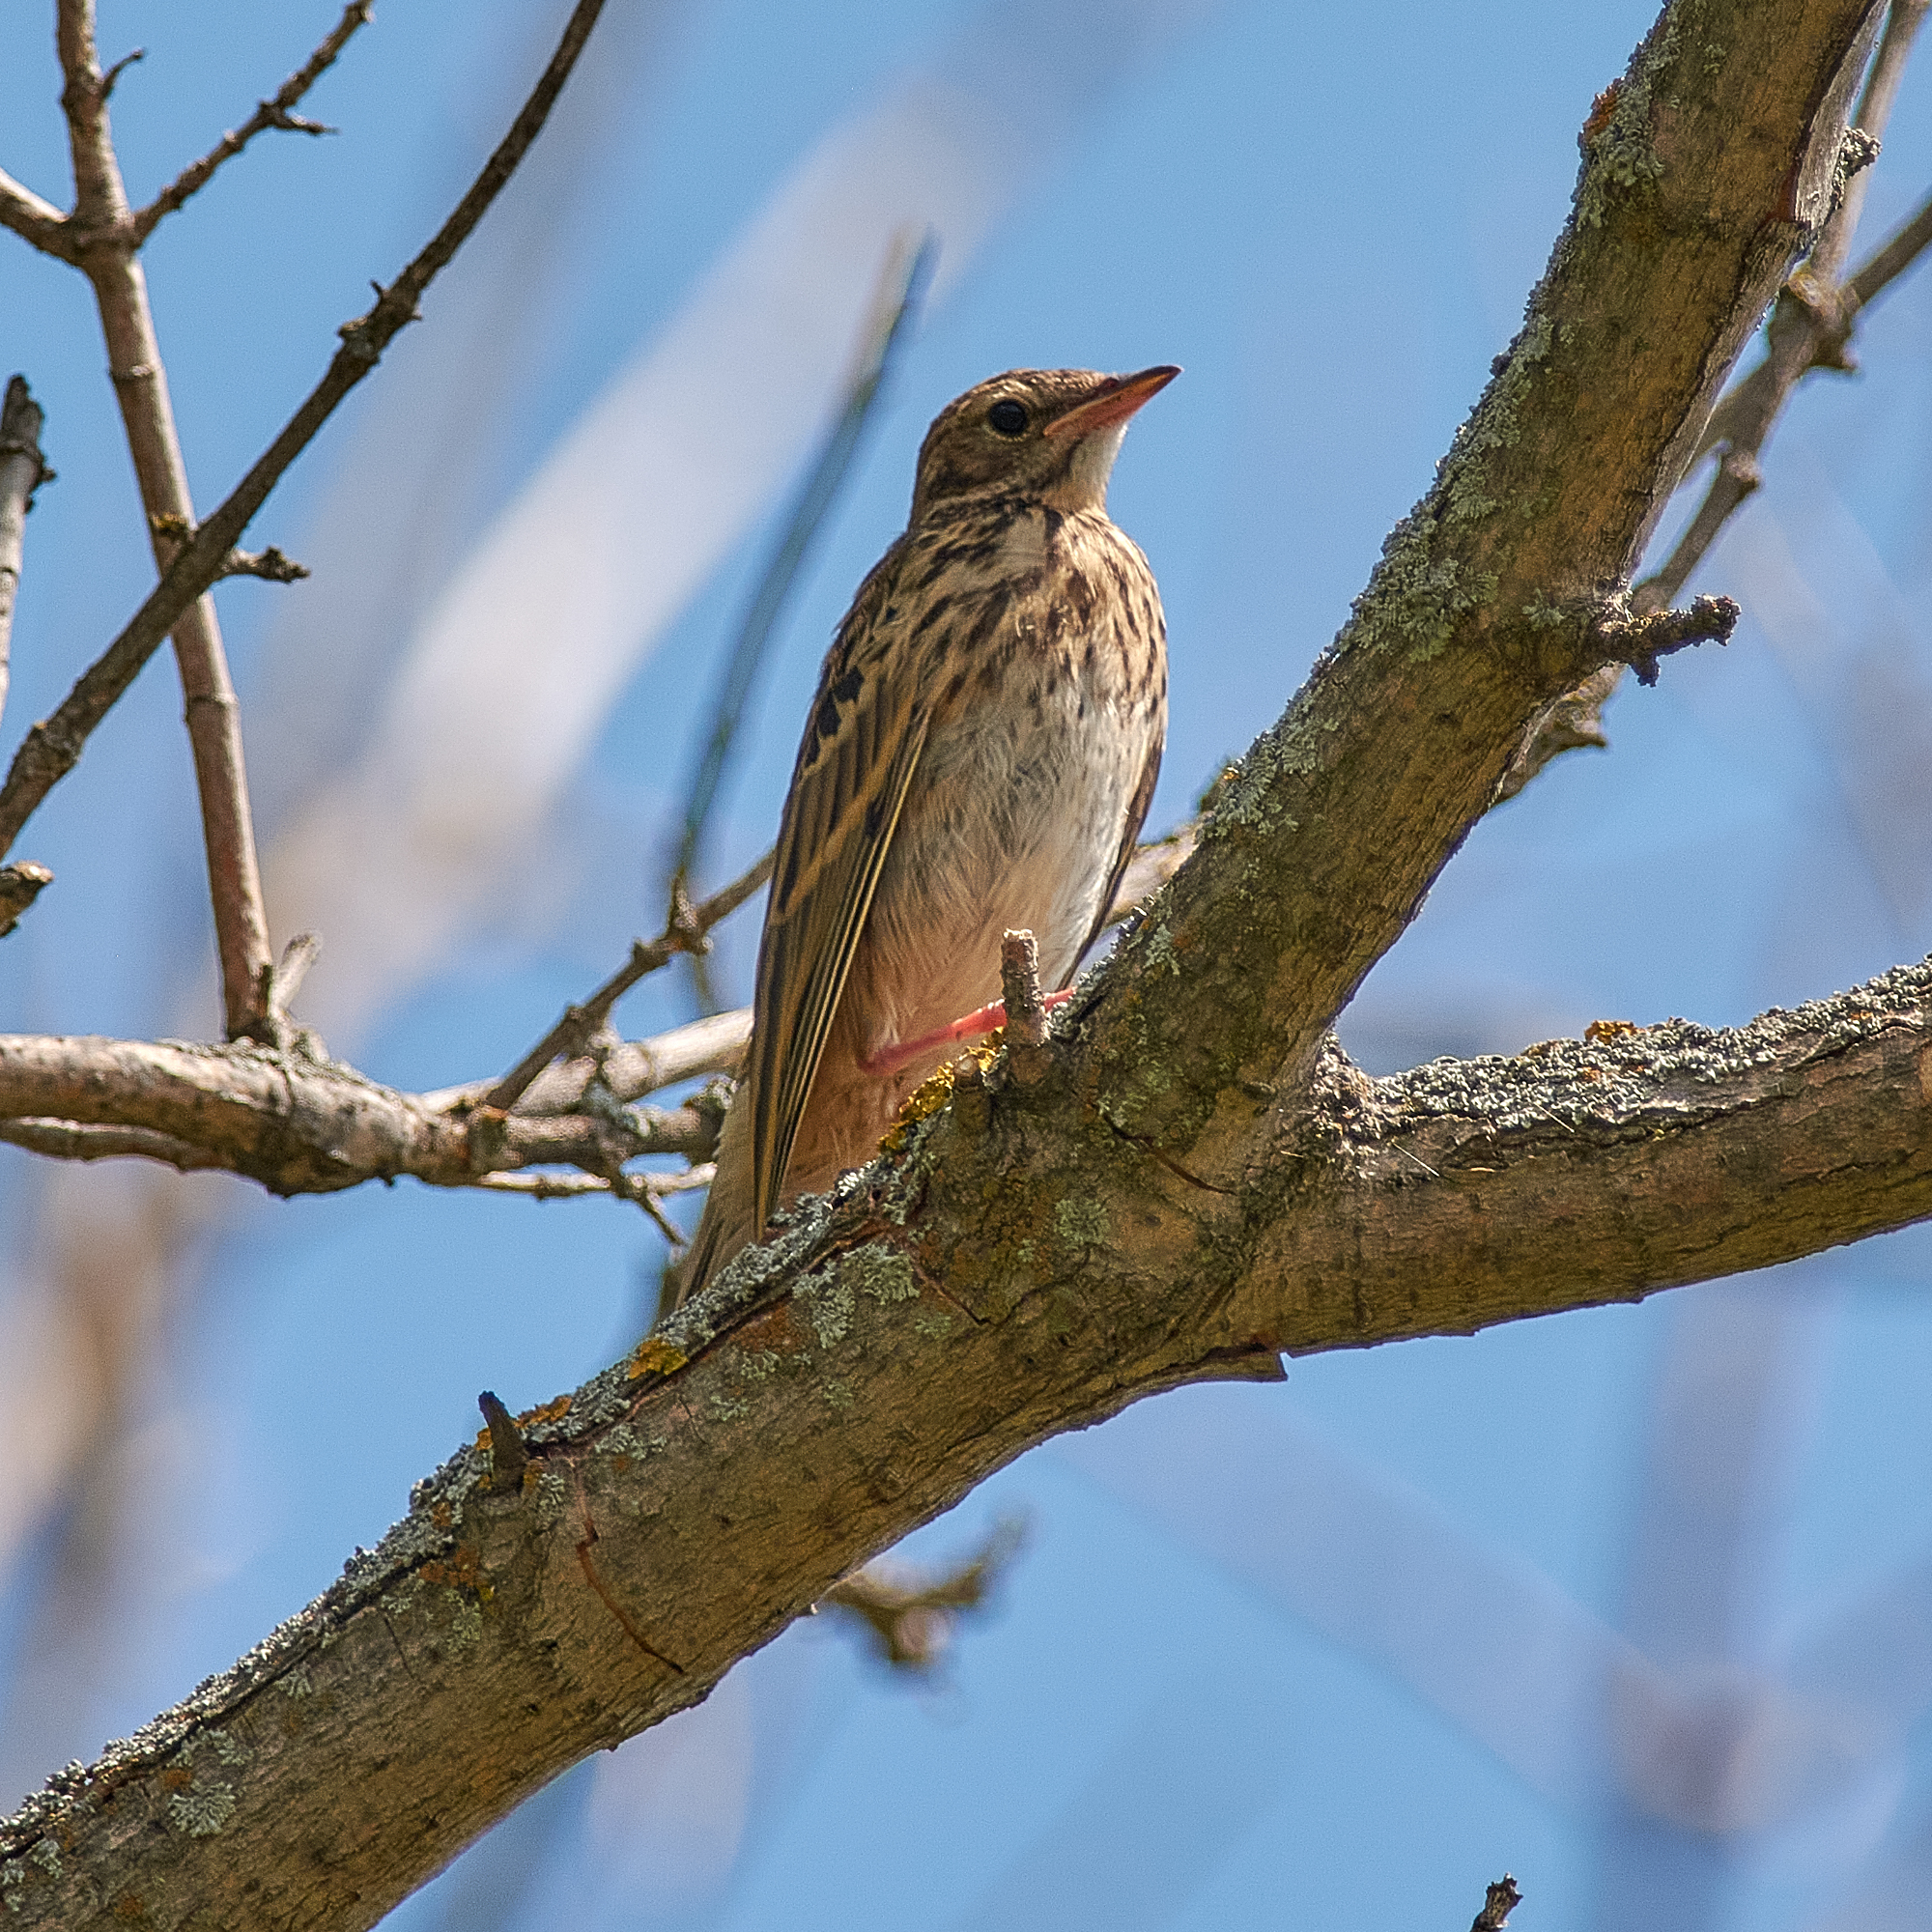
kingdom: Animalia
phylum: Chordata
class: Aves
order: Passeriformes
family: Motacillidae
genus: Anthus
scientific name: Anthus trivialis
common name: Tree pipit
